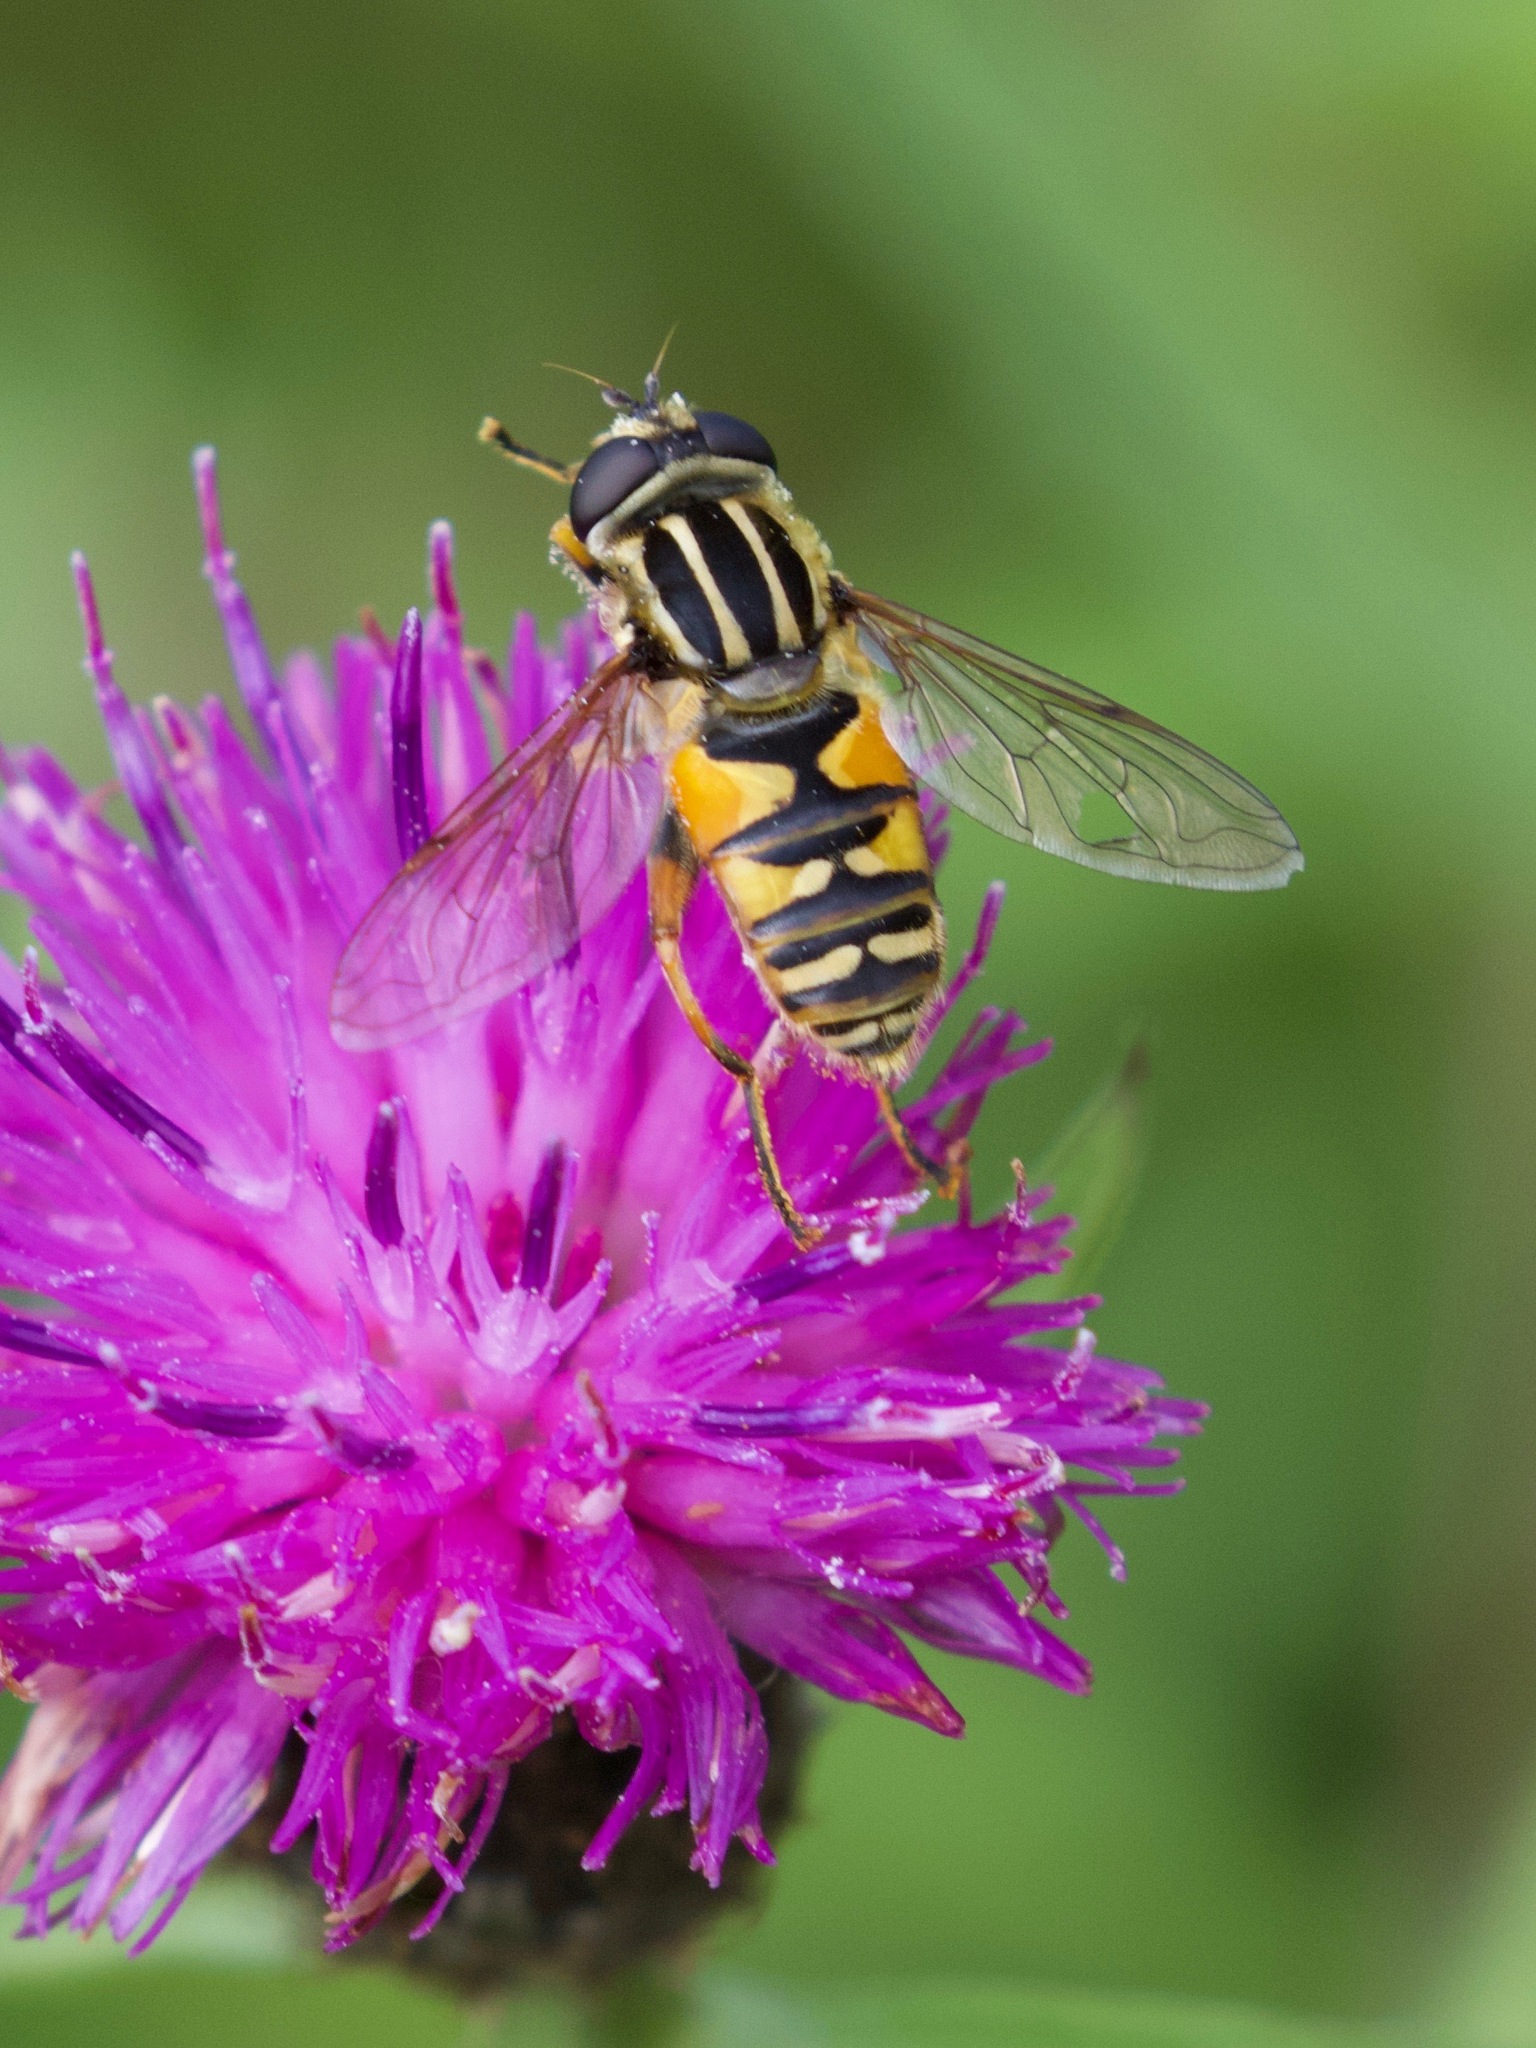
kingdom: Animalia
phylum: Arthropoda
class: Insecta
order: Diptera
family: Syrphidae
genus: Helophilus
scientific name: Helophilus pendulus
